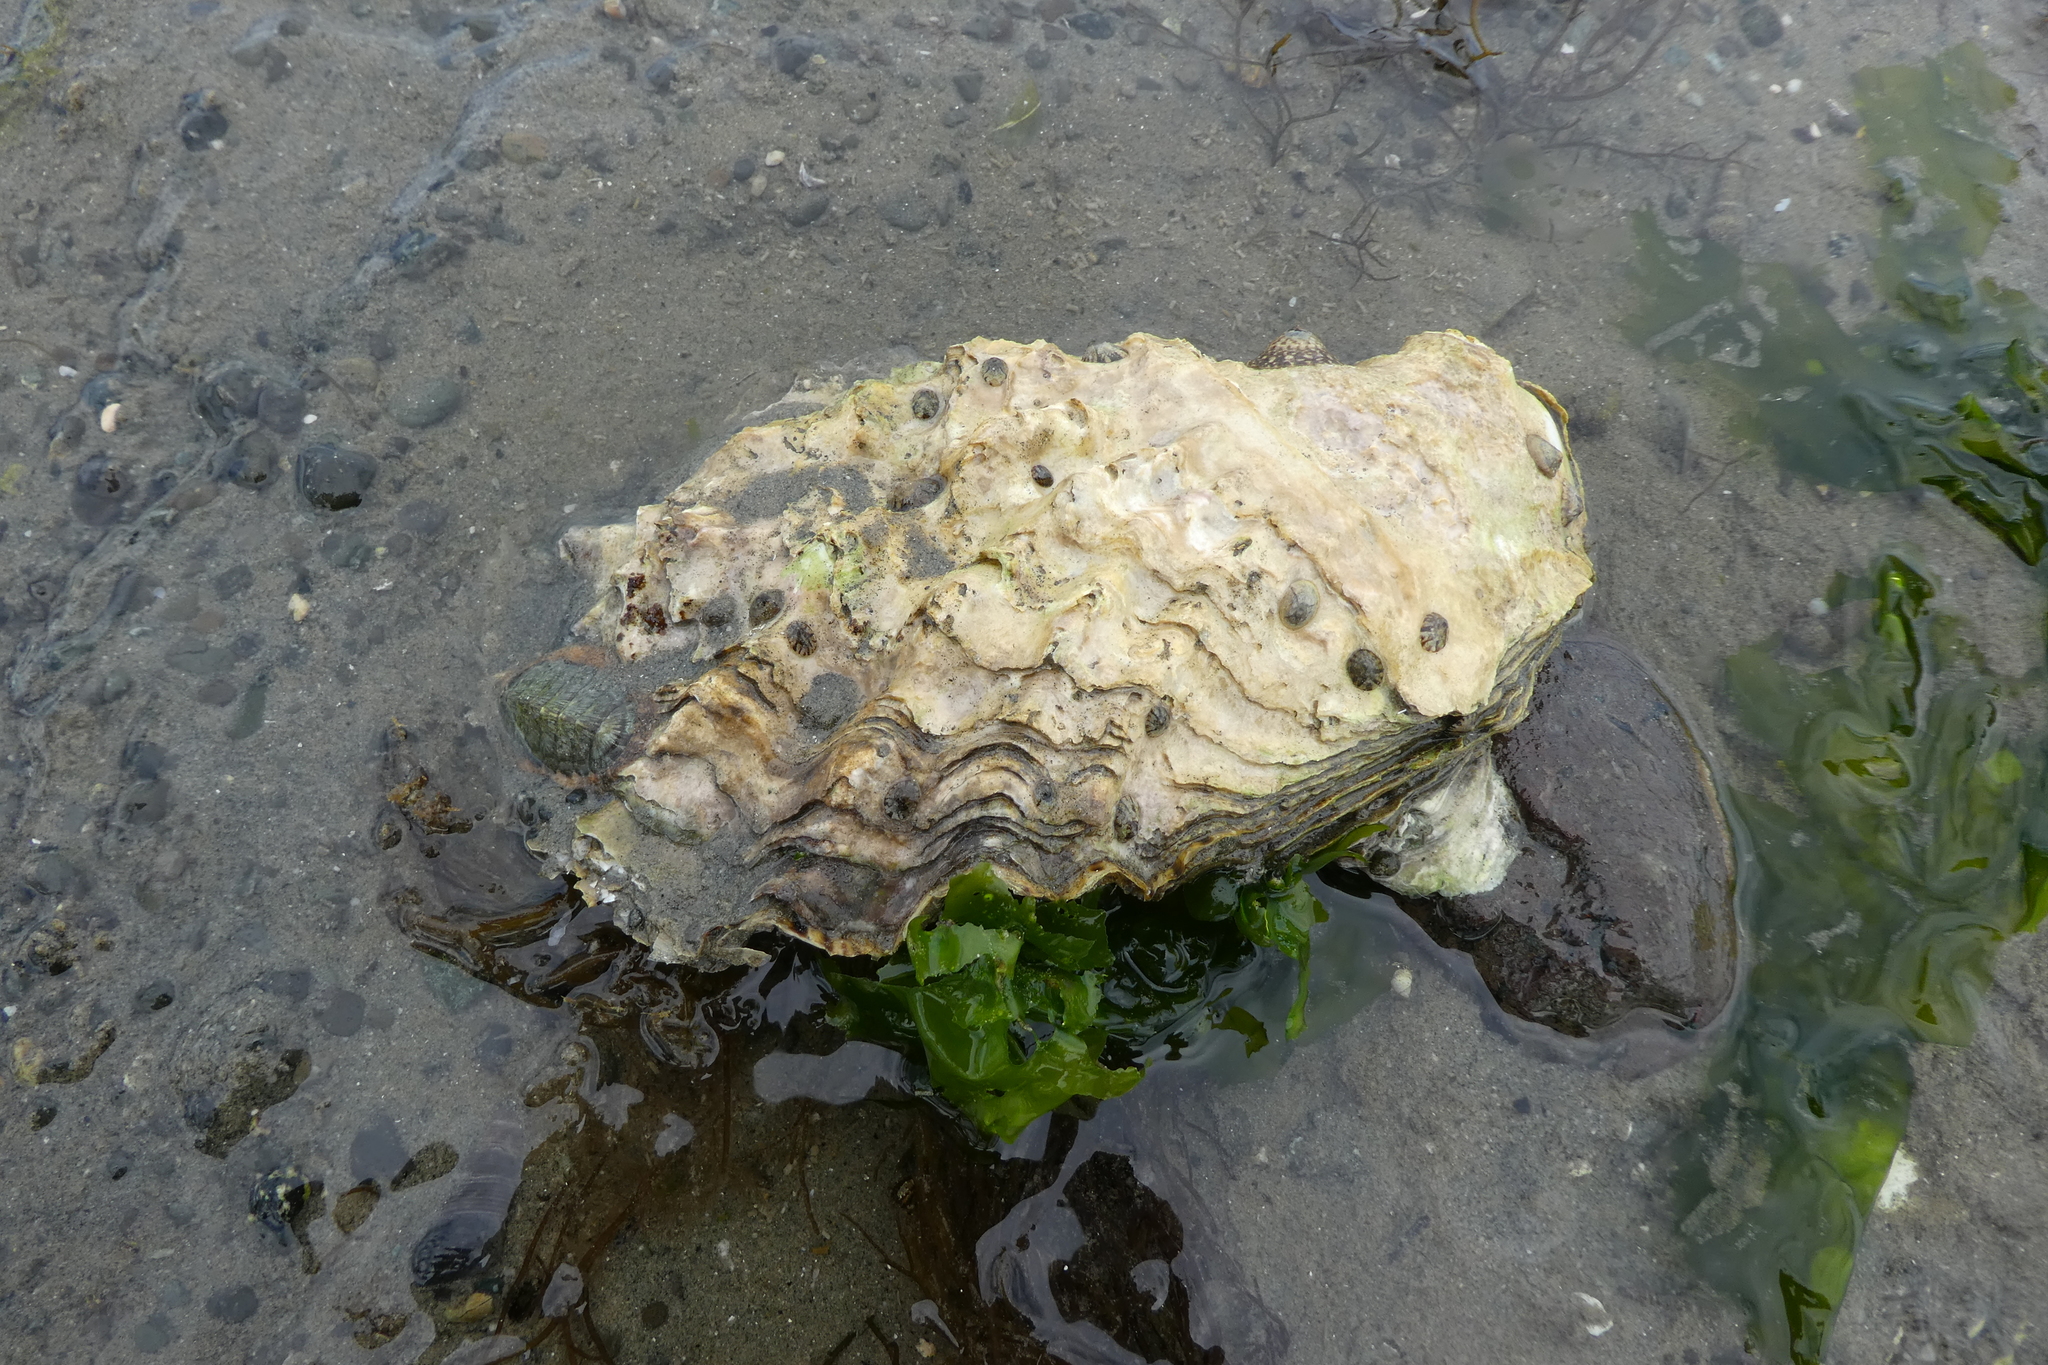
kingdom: Animalia
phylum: Mollusca
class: Bivalvia
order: Ostreida
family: Ostreidae
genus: Magallana
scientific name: Magallana gigas
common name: Pacific oyster
